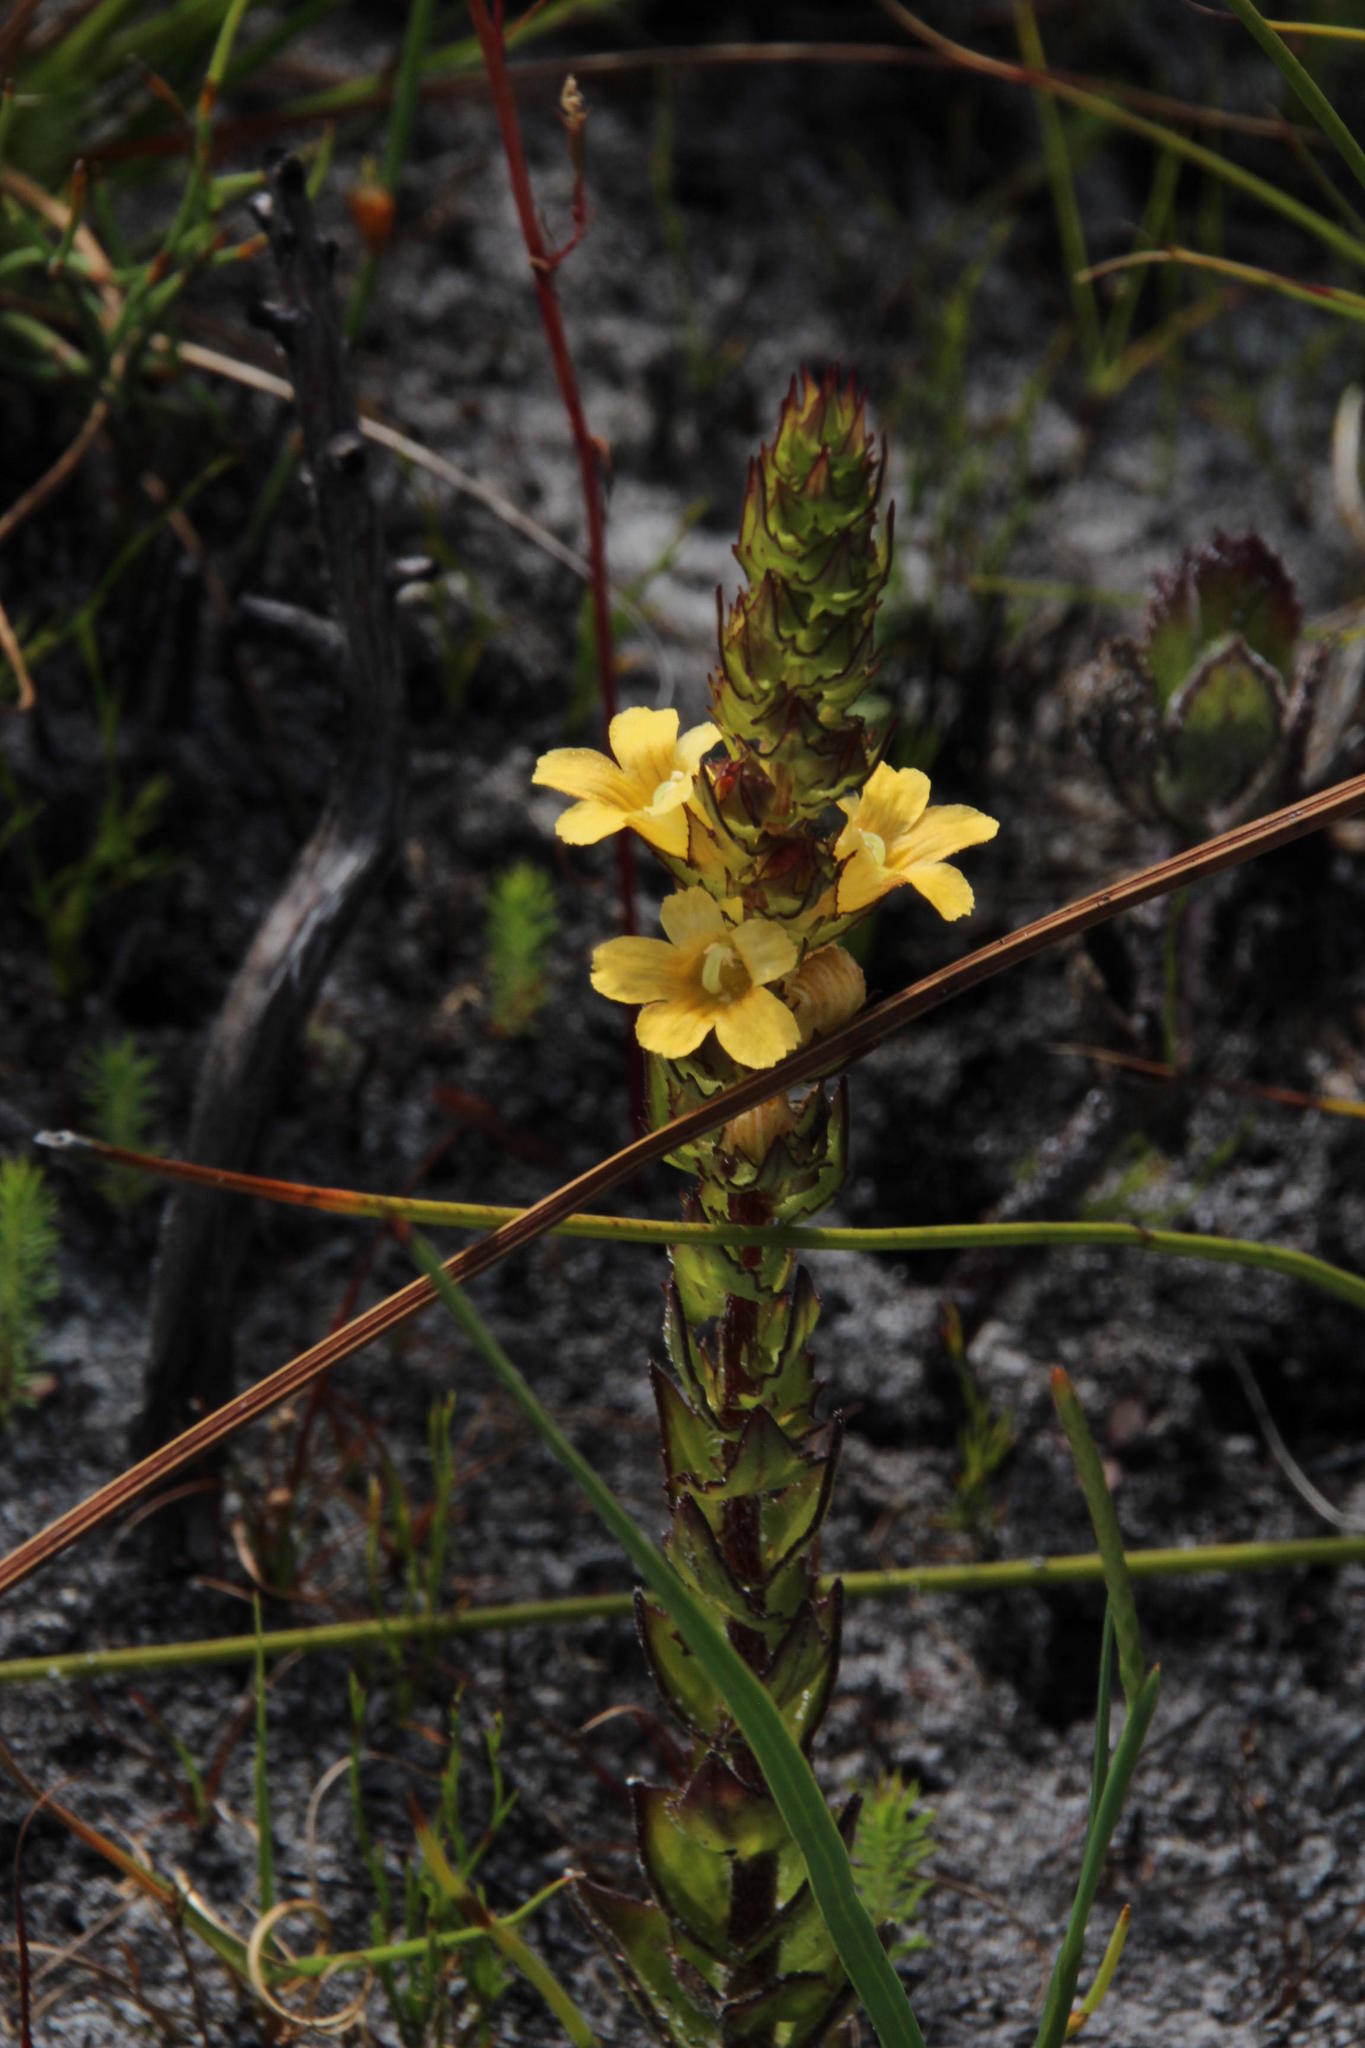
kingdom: Plantae
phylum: Tracheophyta
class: Magnoliopsida
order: Lamiales
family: Orobanchaceae
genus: Alectra
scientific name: Alectra sessiliflora
